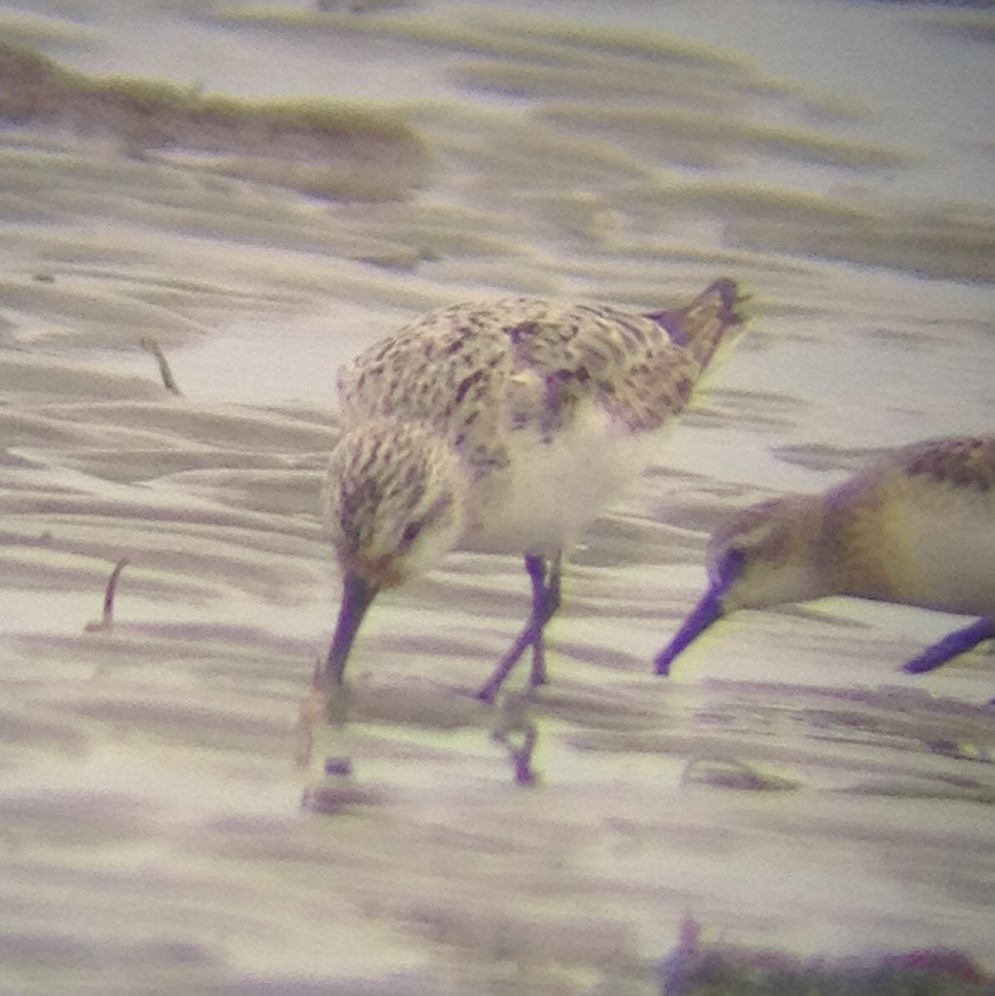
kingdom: Animalia
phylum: Chordata
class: Aves
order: Charadriiformes
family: Scolopacidae
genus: Calidris
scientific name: Calidris alba
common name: Sanderling
